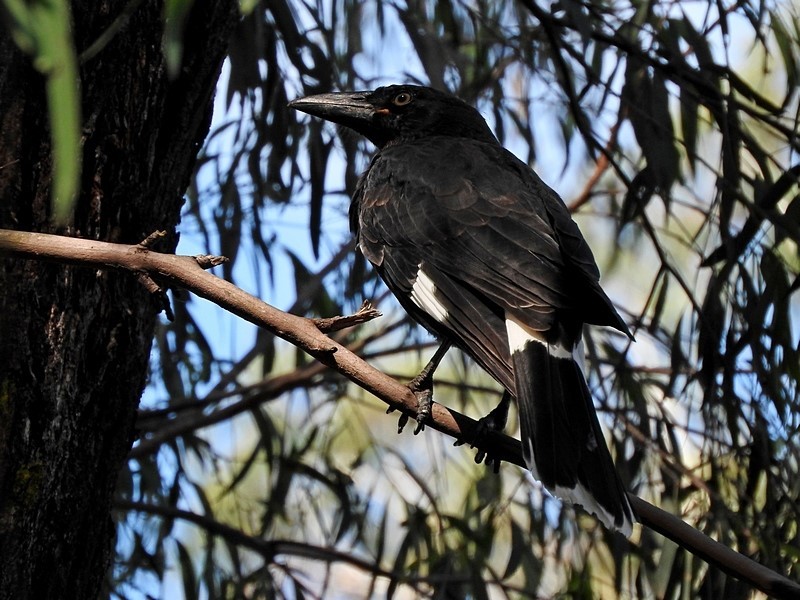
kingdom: Animalia
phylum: Chordata
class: Aves
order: Passeriformes
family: Cracticidae
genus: Strepera
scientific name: Strepera graculina
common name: Pied currawong
